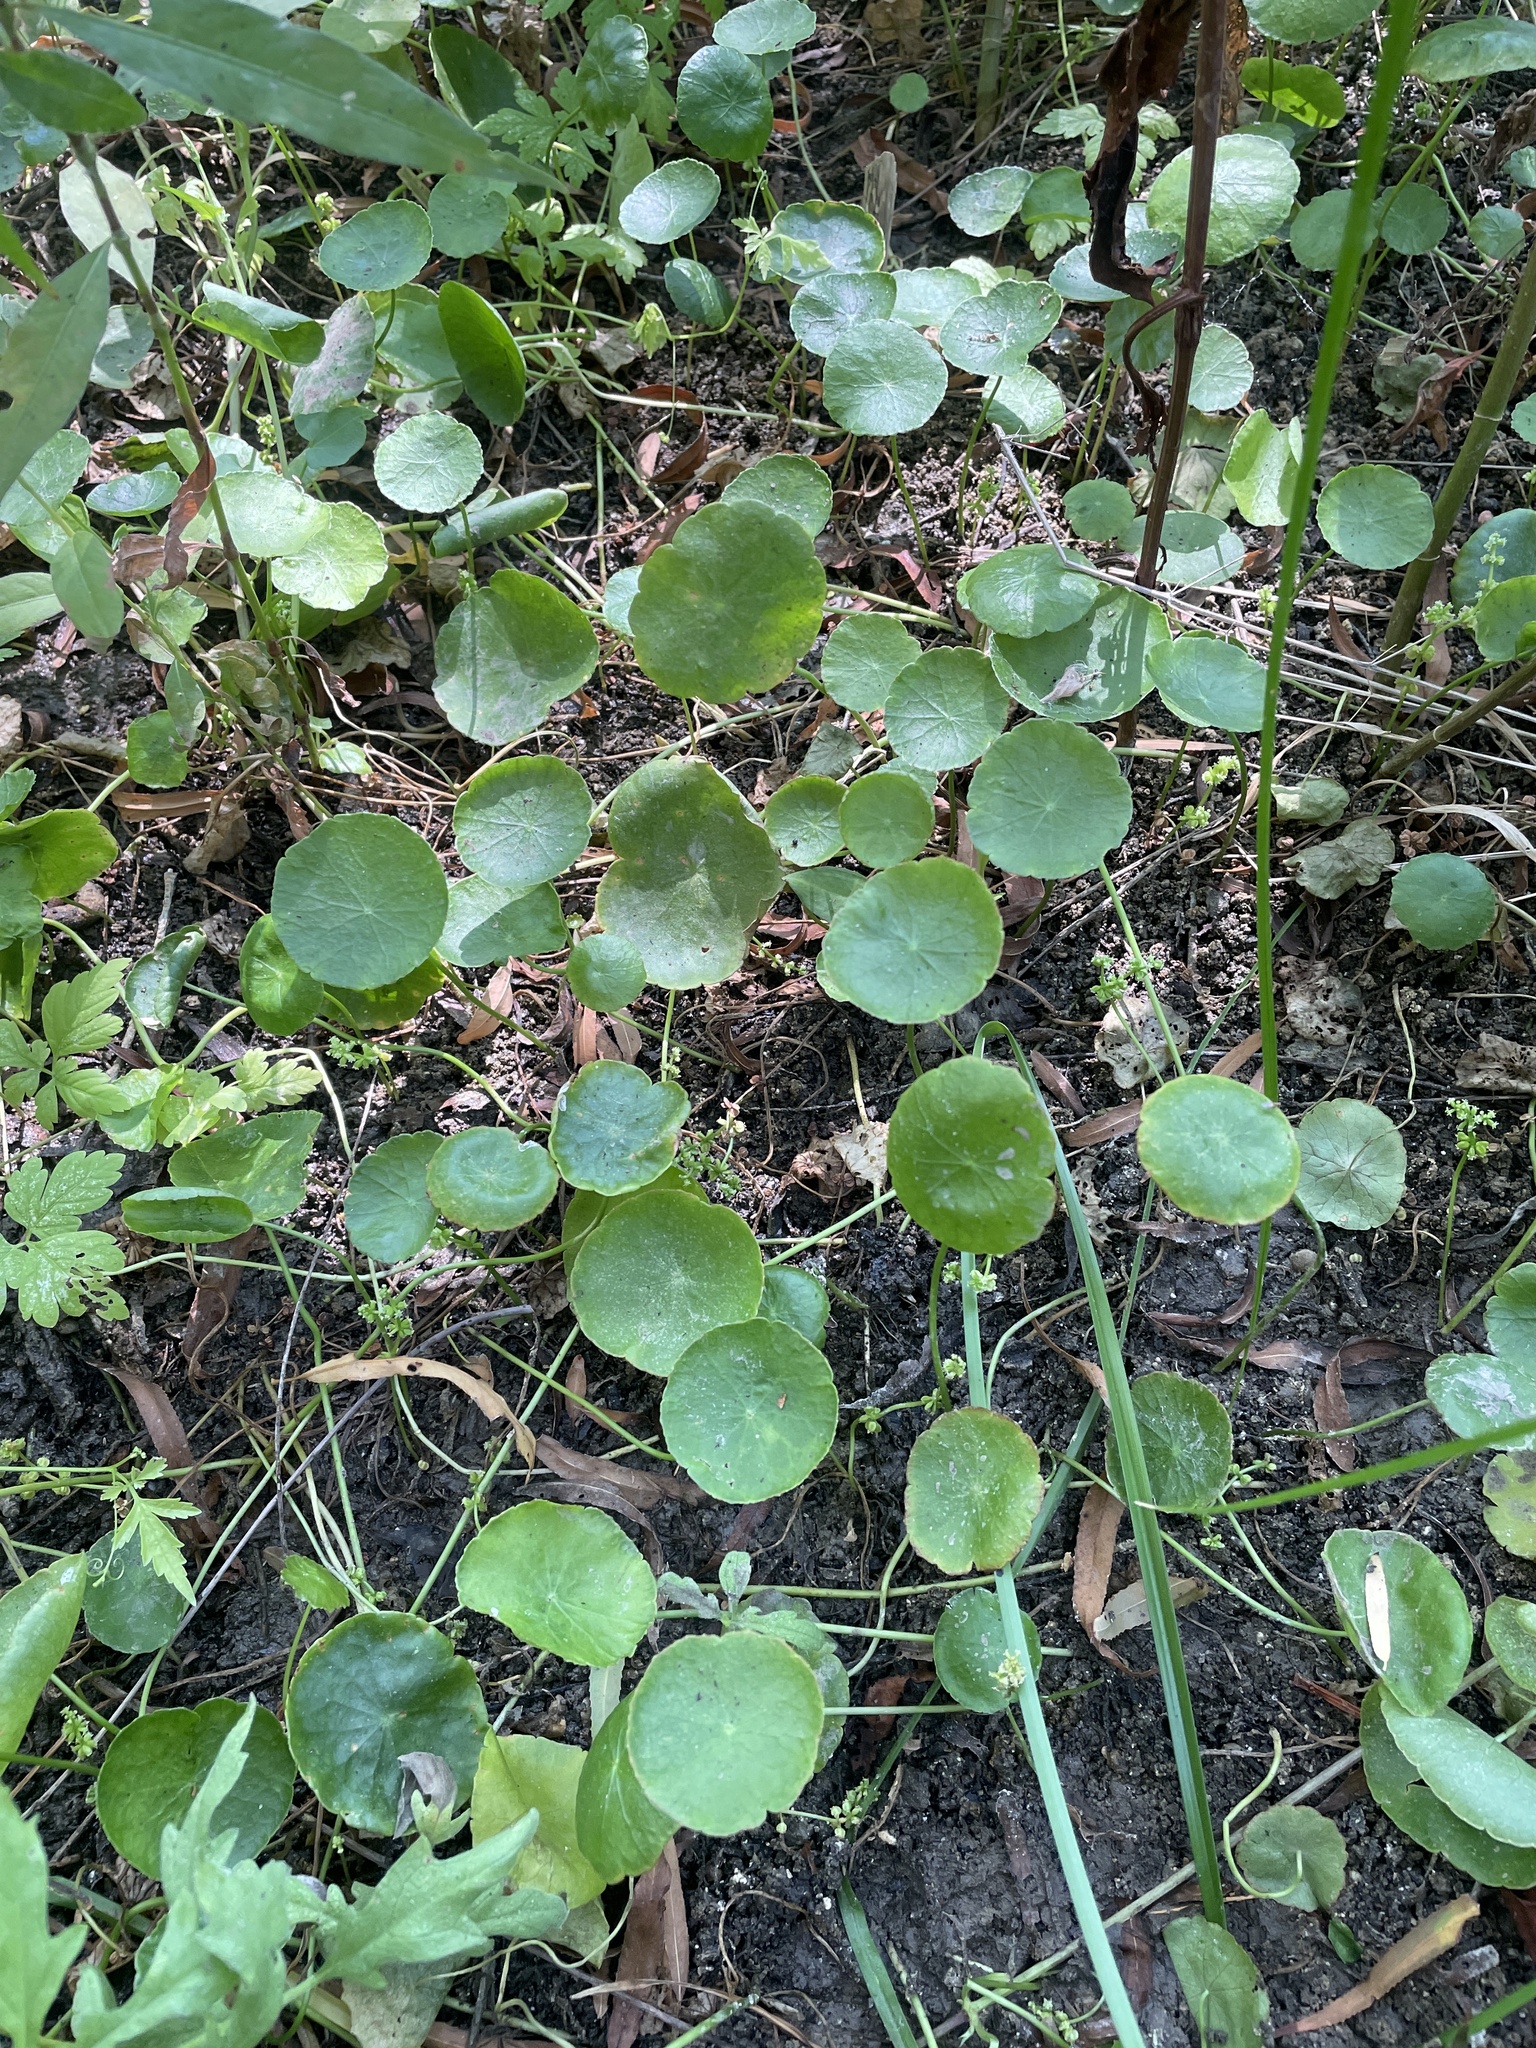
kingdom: Plantae
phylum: Tracheophyta
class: Magnoliopsida
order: Apiales
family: Araliaceae
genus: Hydrocotyle
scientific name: Hydrocotyle verticillata
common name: Whorled marshpennywort
